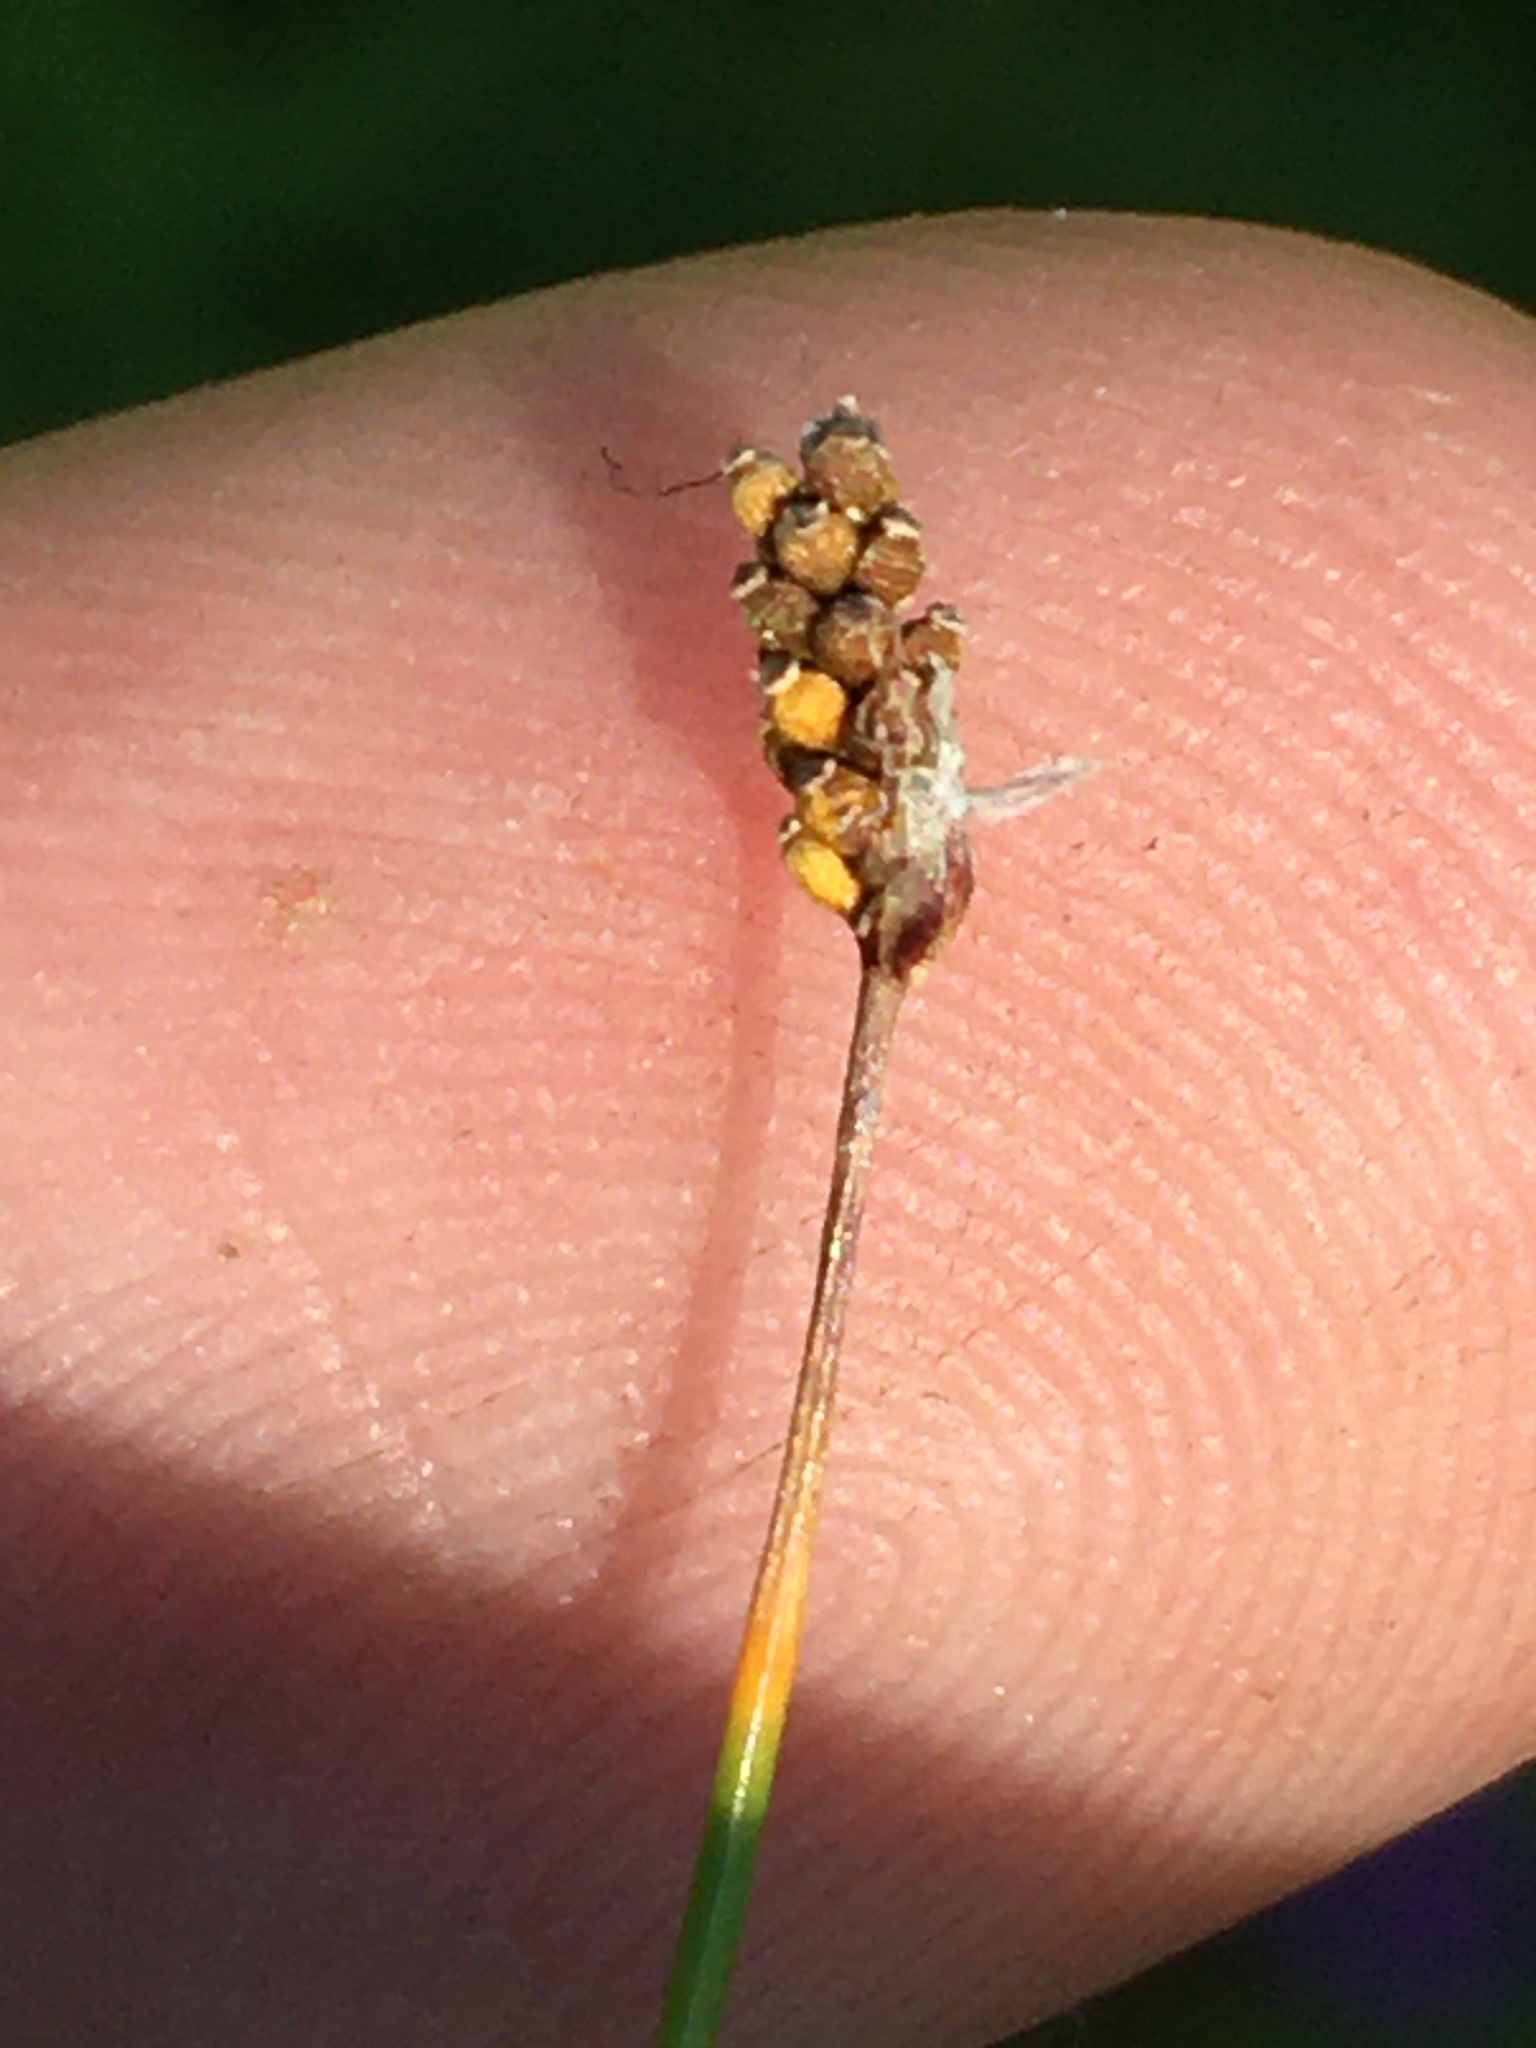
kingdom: Plantae
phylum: Tracheophyta
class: Liliopsida
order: Poales
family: Cyperaceae
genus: Eleocharis
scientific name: Eleocharis elliptica
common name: Capitate spikerush
